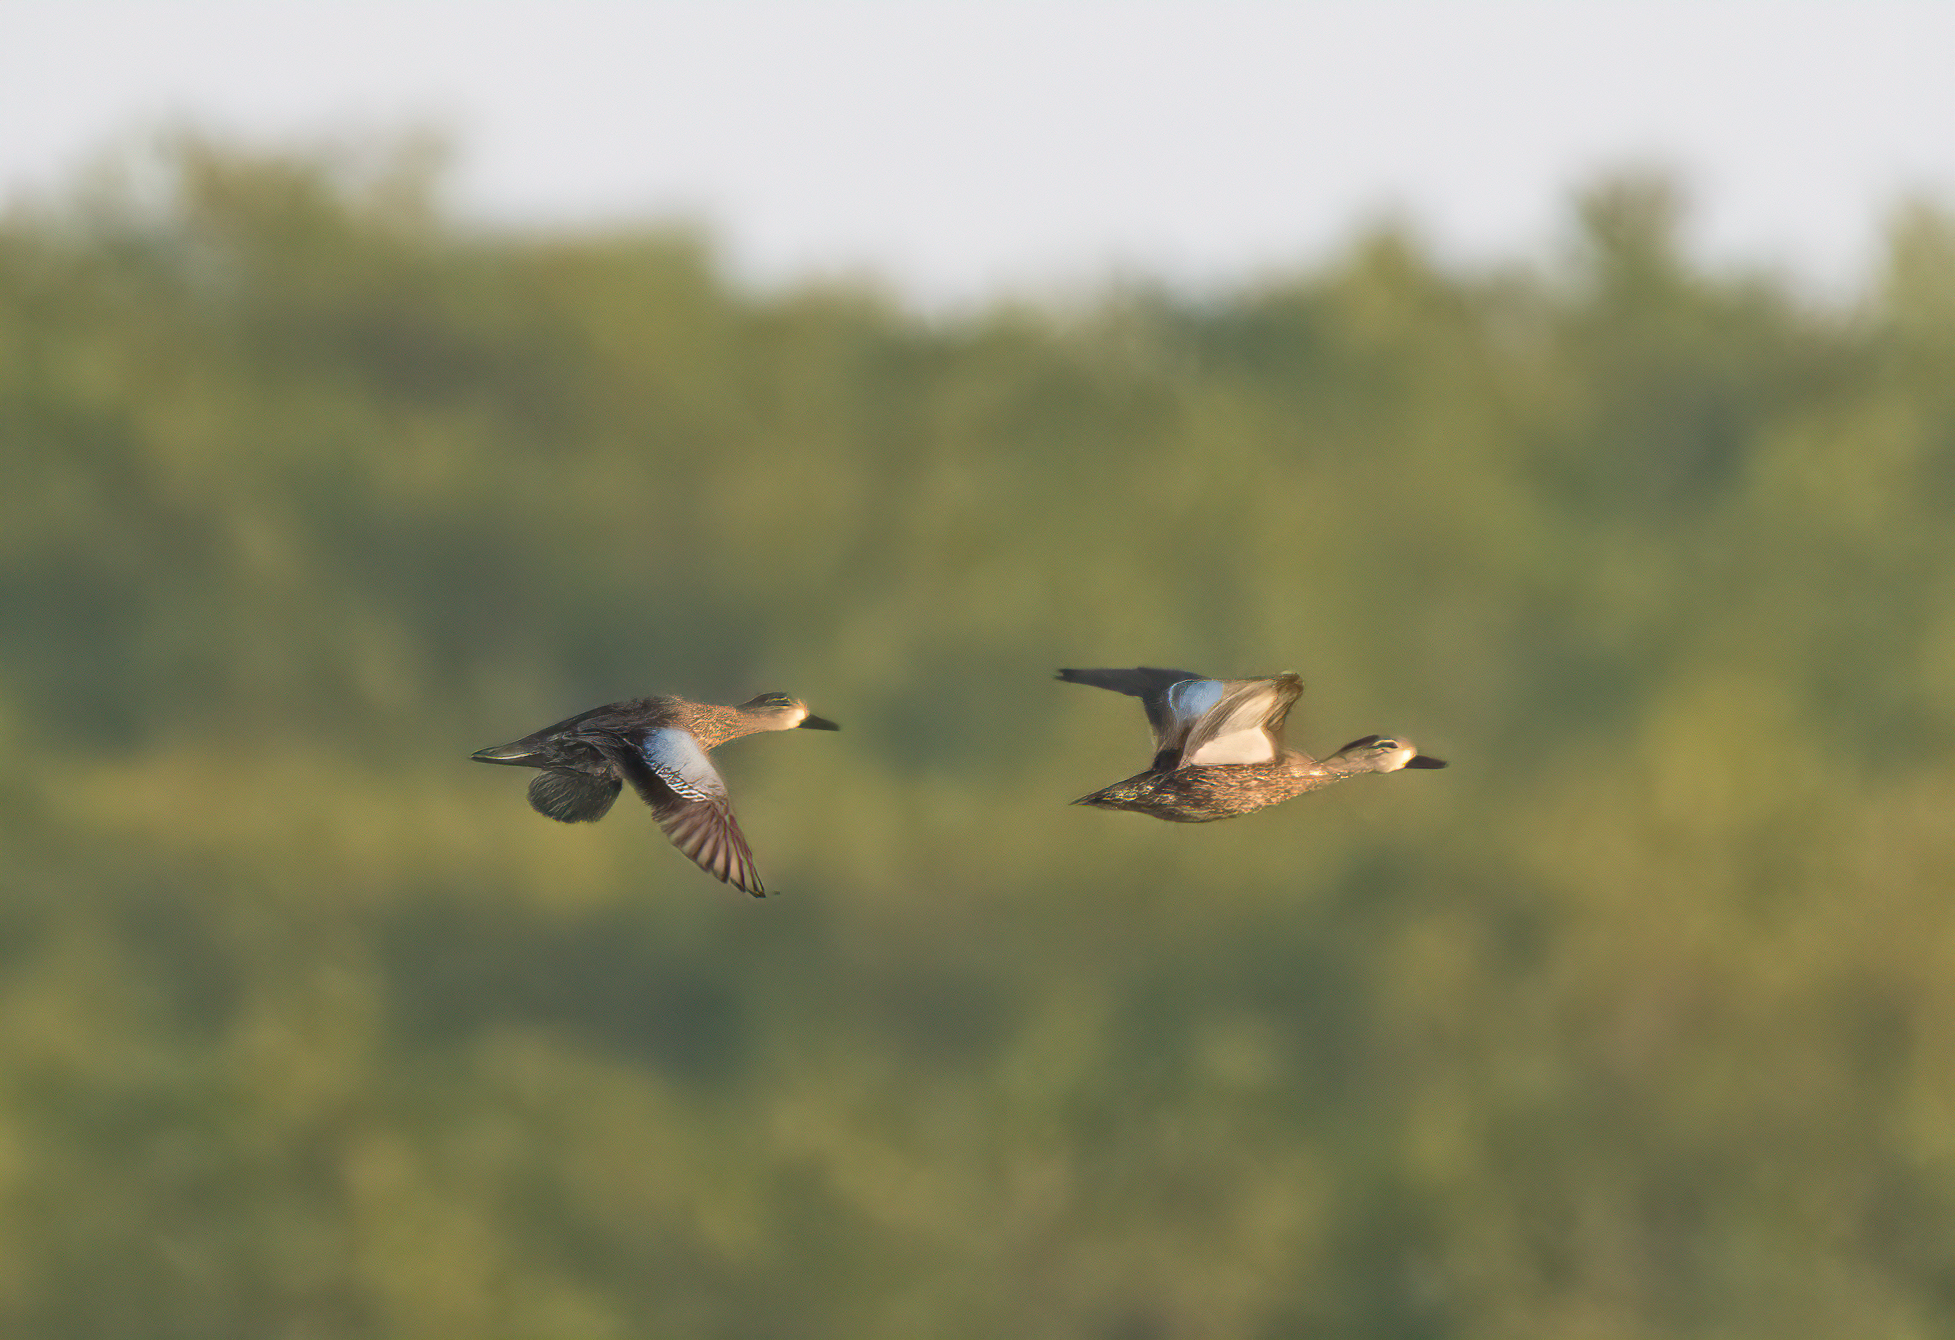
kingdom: Animalia
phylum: Chordata
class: Aves
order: Anseriformes
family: Anatidae
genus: Spatula
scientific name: Spatula discors
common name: Blue-winged teal
